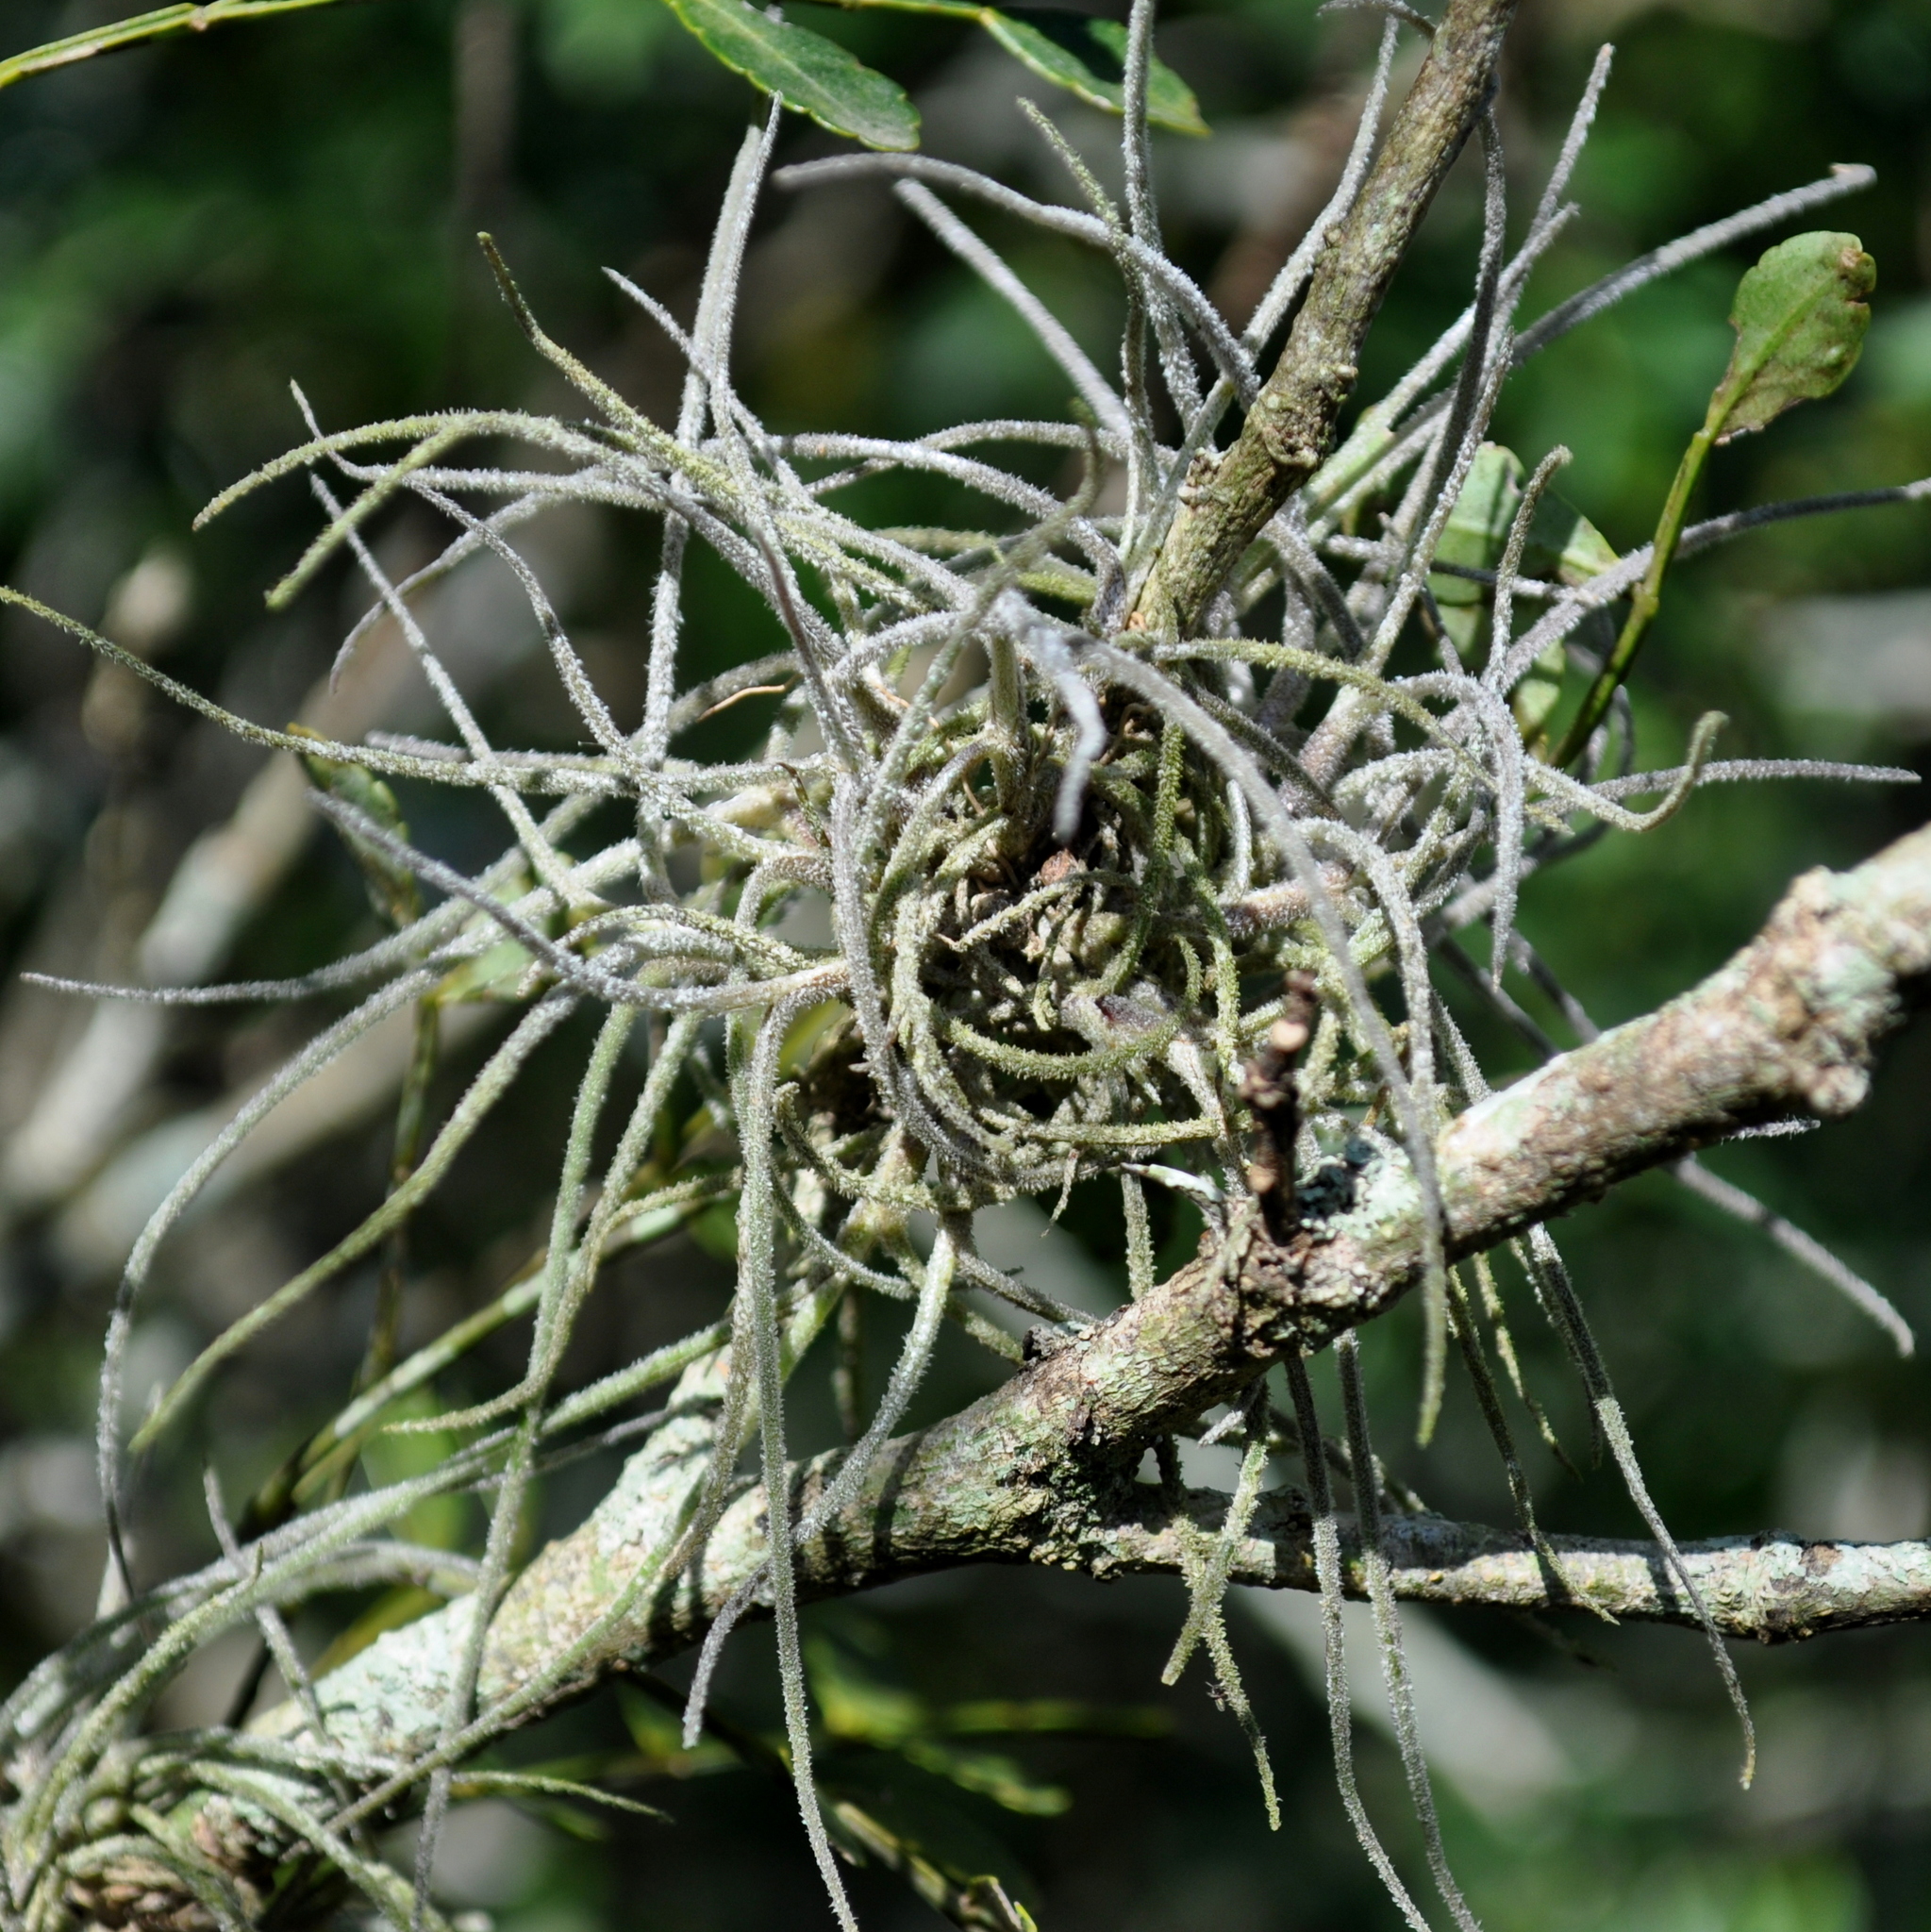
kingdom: Plantae
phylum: Tracheophyta
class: Liliopsida
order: Poales
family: Bromeliaceae
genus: Tillandsia
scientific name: Tillandsia recurvata
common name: Small ballmoss
